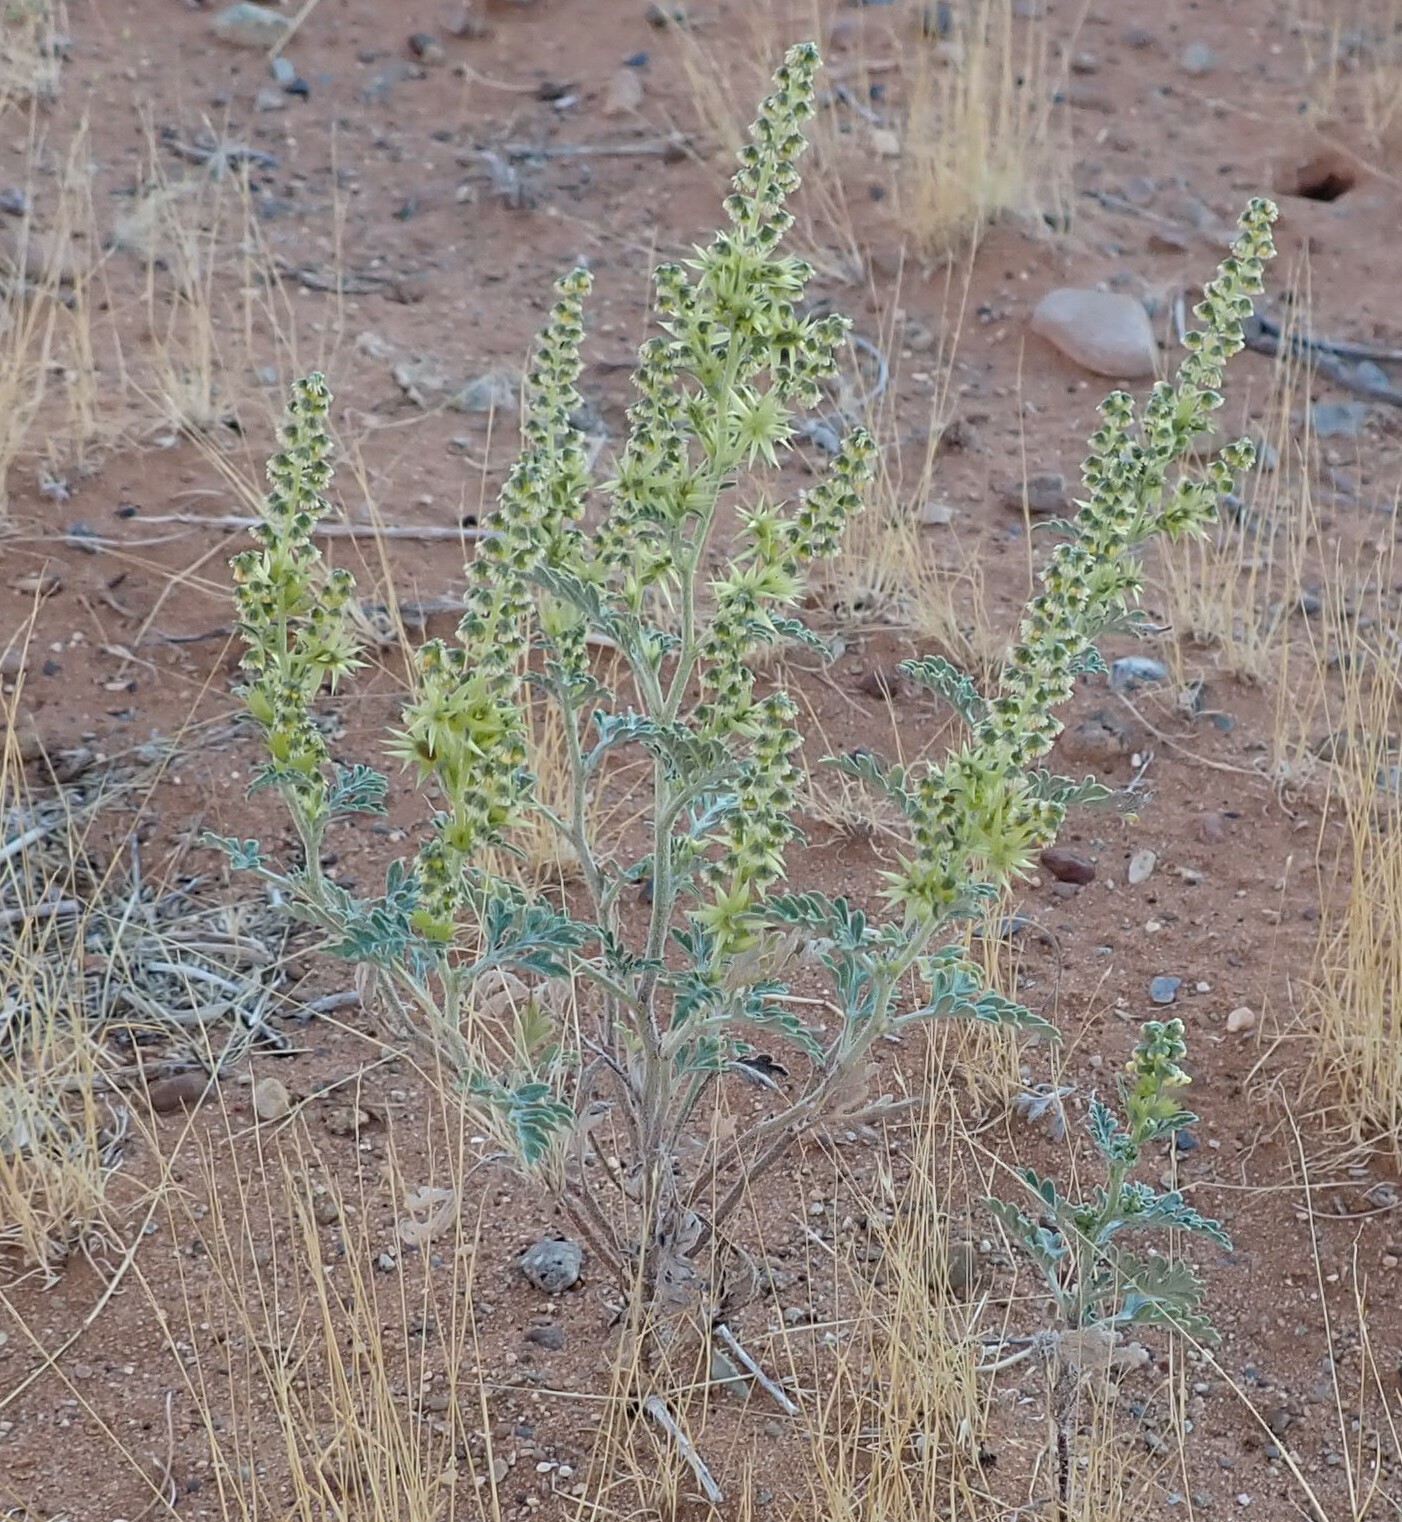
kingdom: Plantae
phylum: Tracheophyta
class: Magnoliopsida
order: Asterales
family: Asteraceae
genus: Ambrosia
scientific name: Ambrosia acanthicarpa
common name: Hooker's bur ragweed
